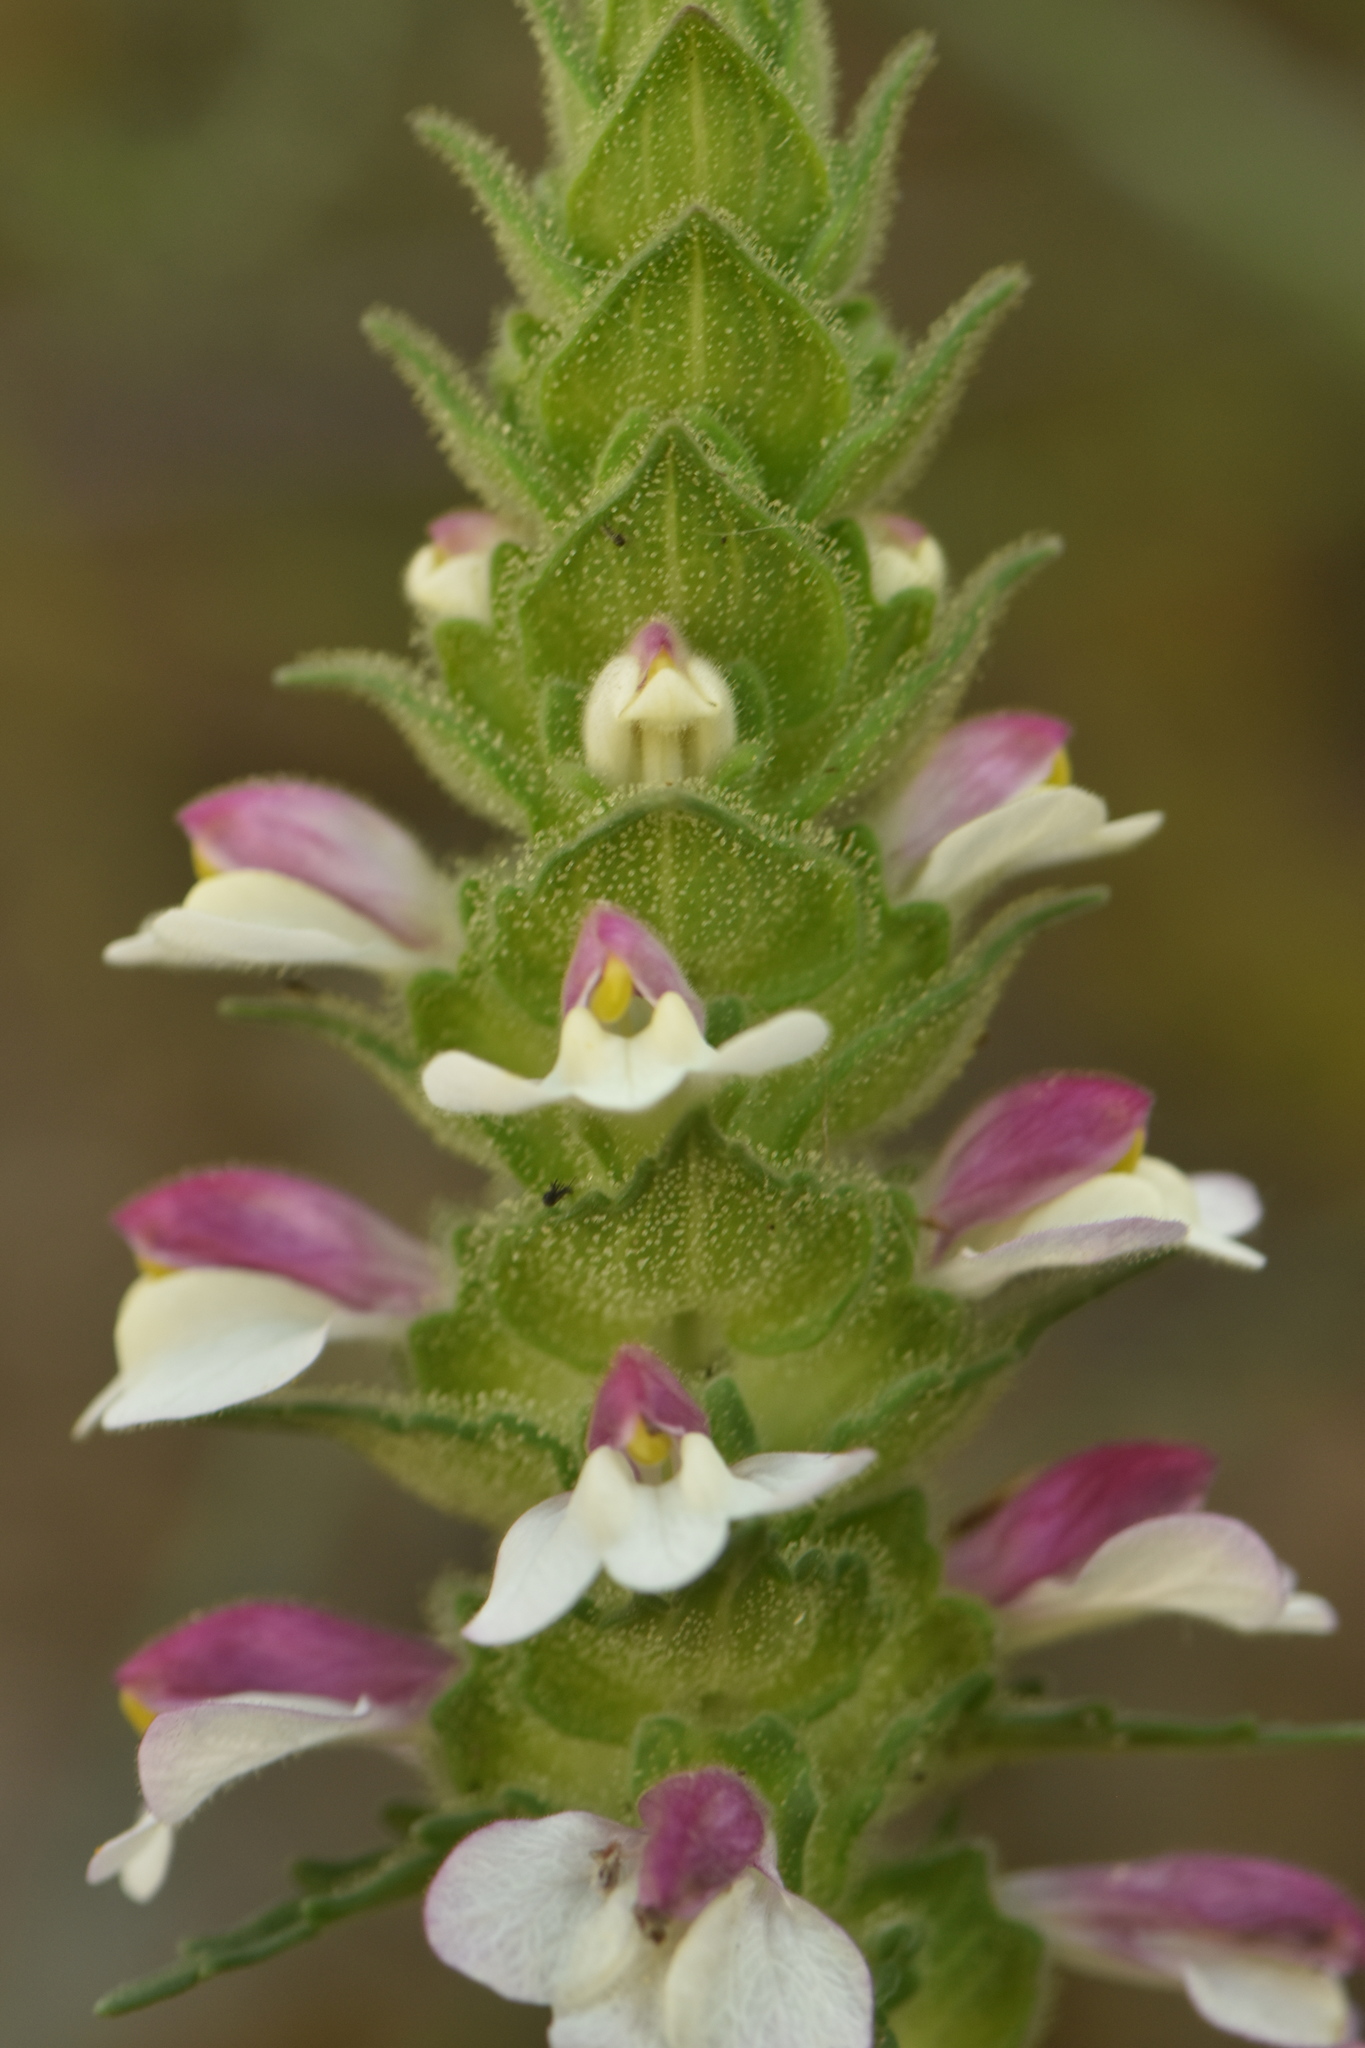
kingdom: Plantae
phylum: Tracheophyta
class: Magnoliopsida
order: Lamiales
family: Orobanchaceae
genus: Bellardia
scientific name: Bellardia trixago
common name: Mediterranean lineseed
